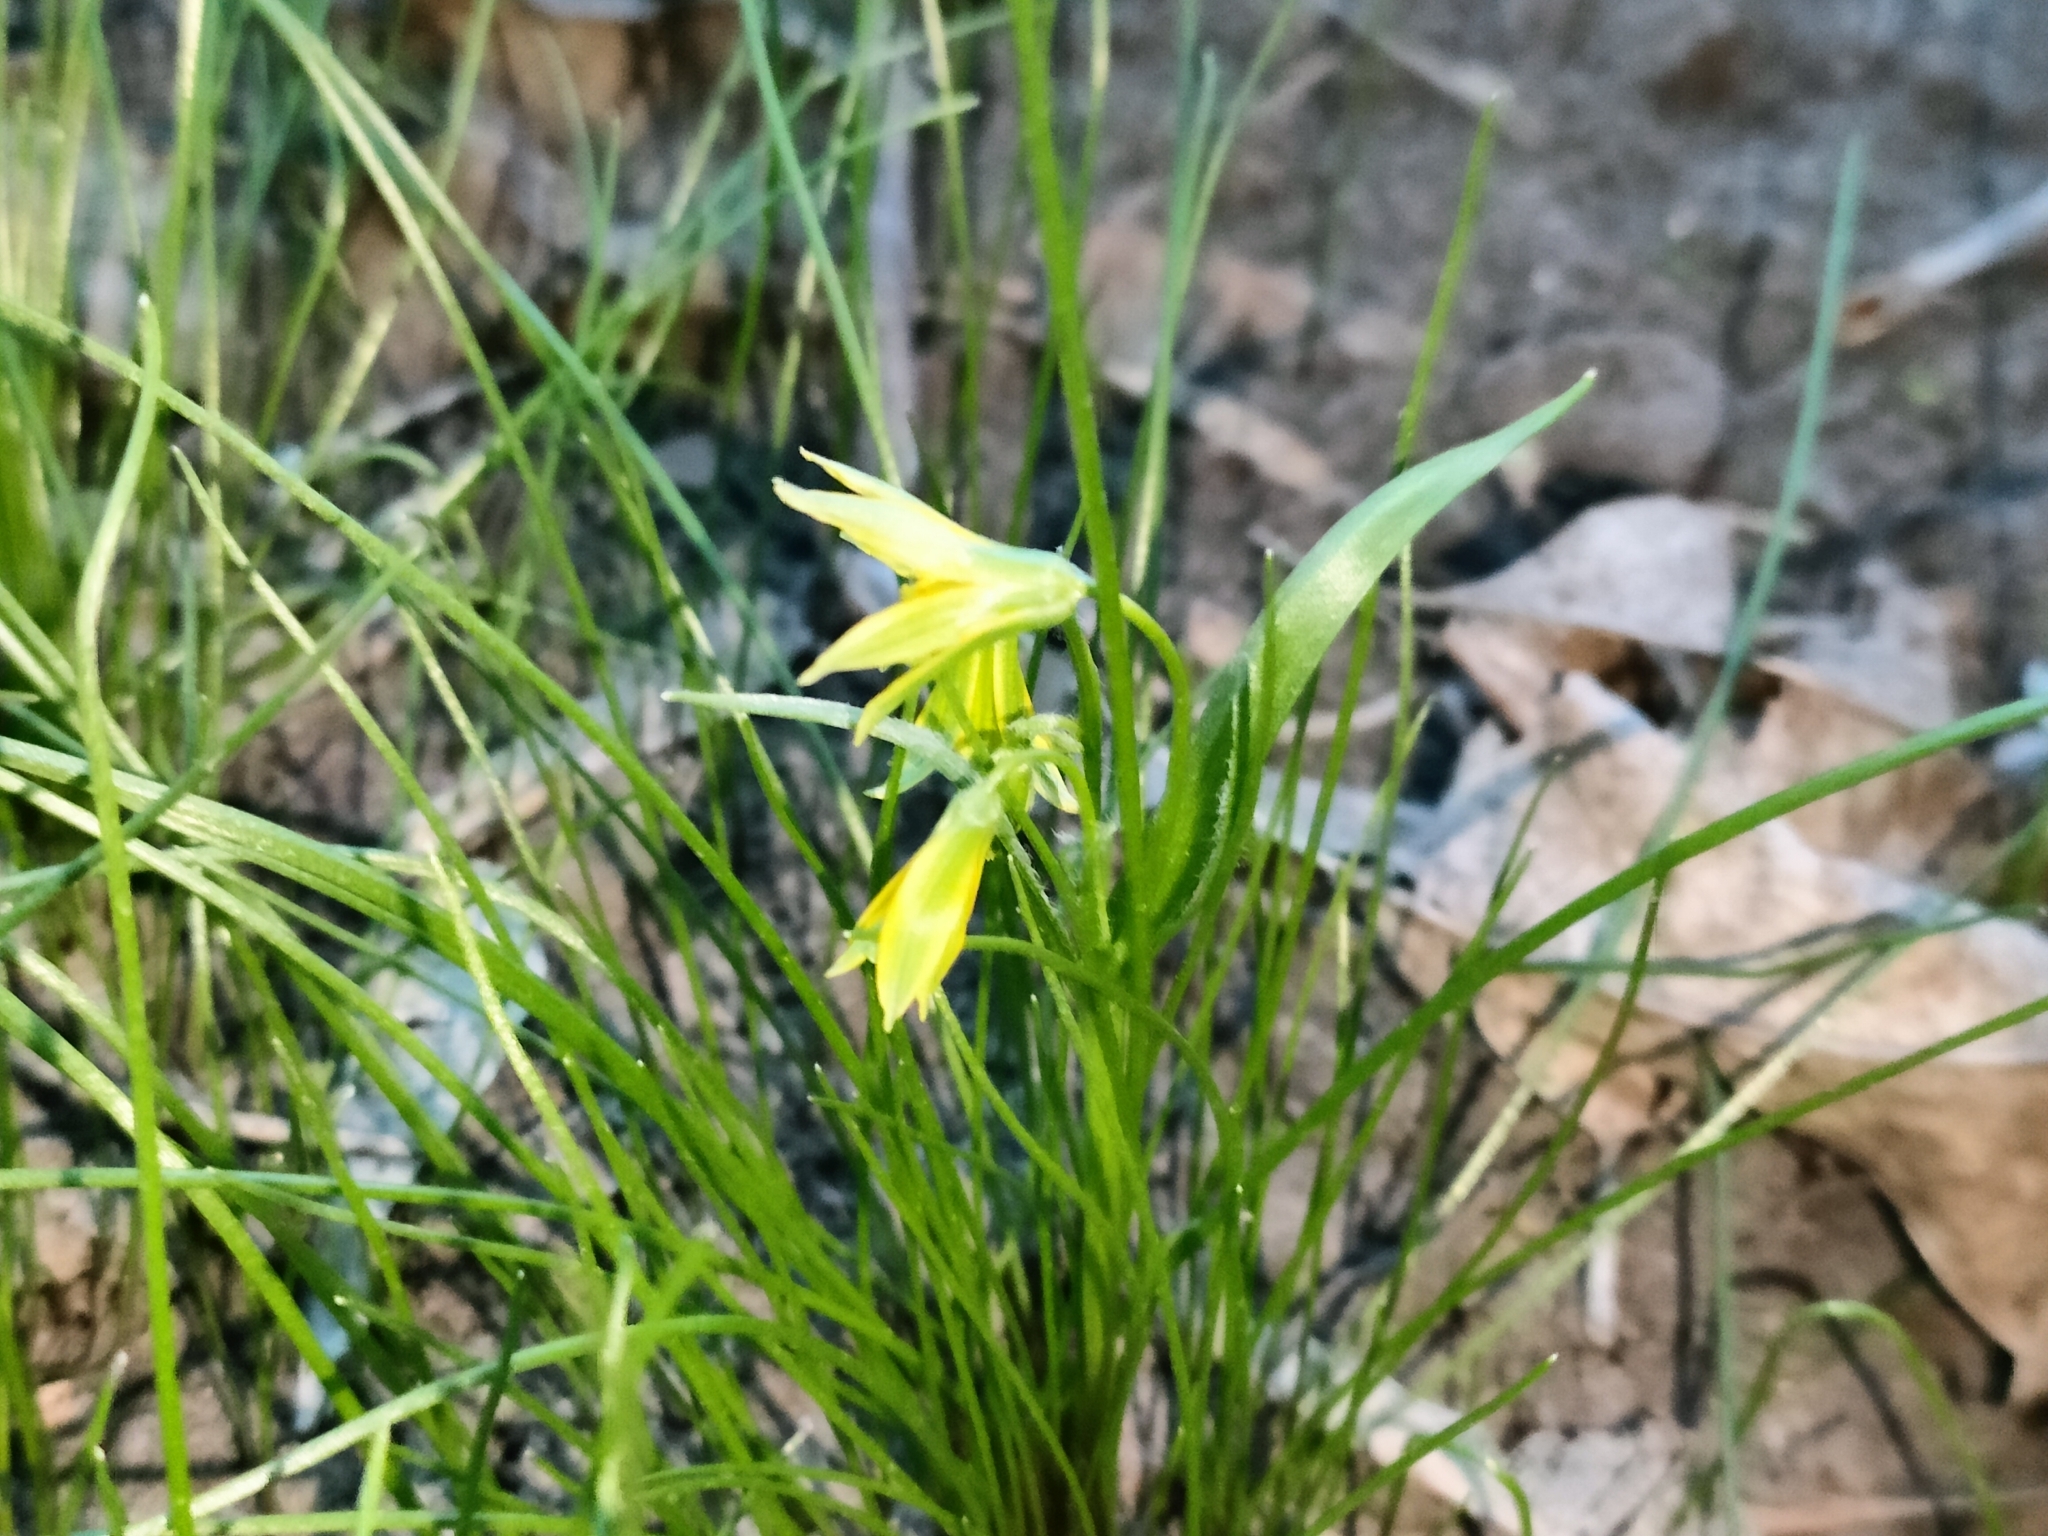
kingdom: Plantae
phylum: Tracheophyta
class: Liliopsida
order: Liliales
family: Liliaceae
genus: Gagea
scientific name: Gagea minima
